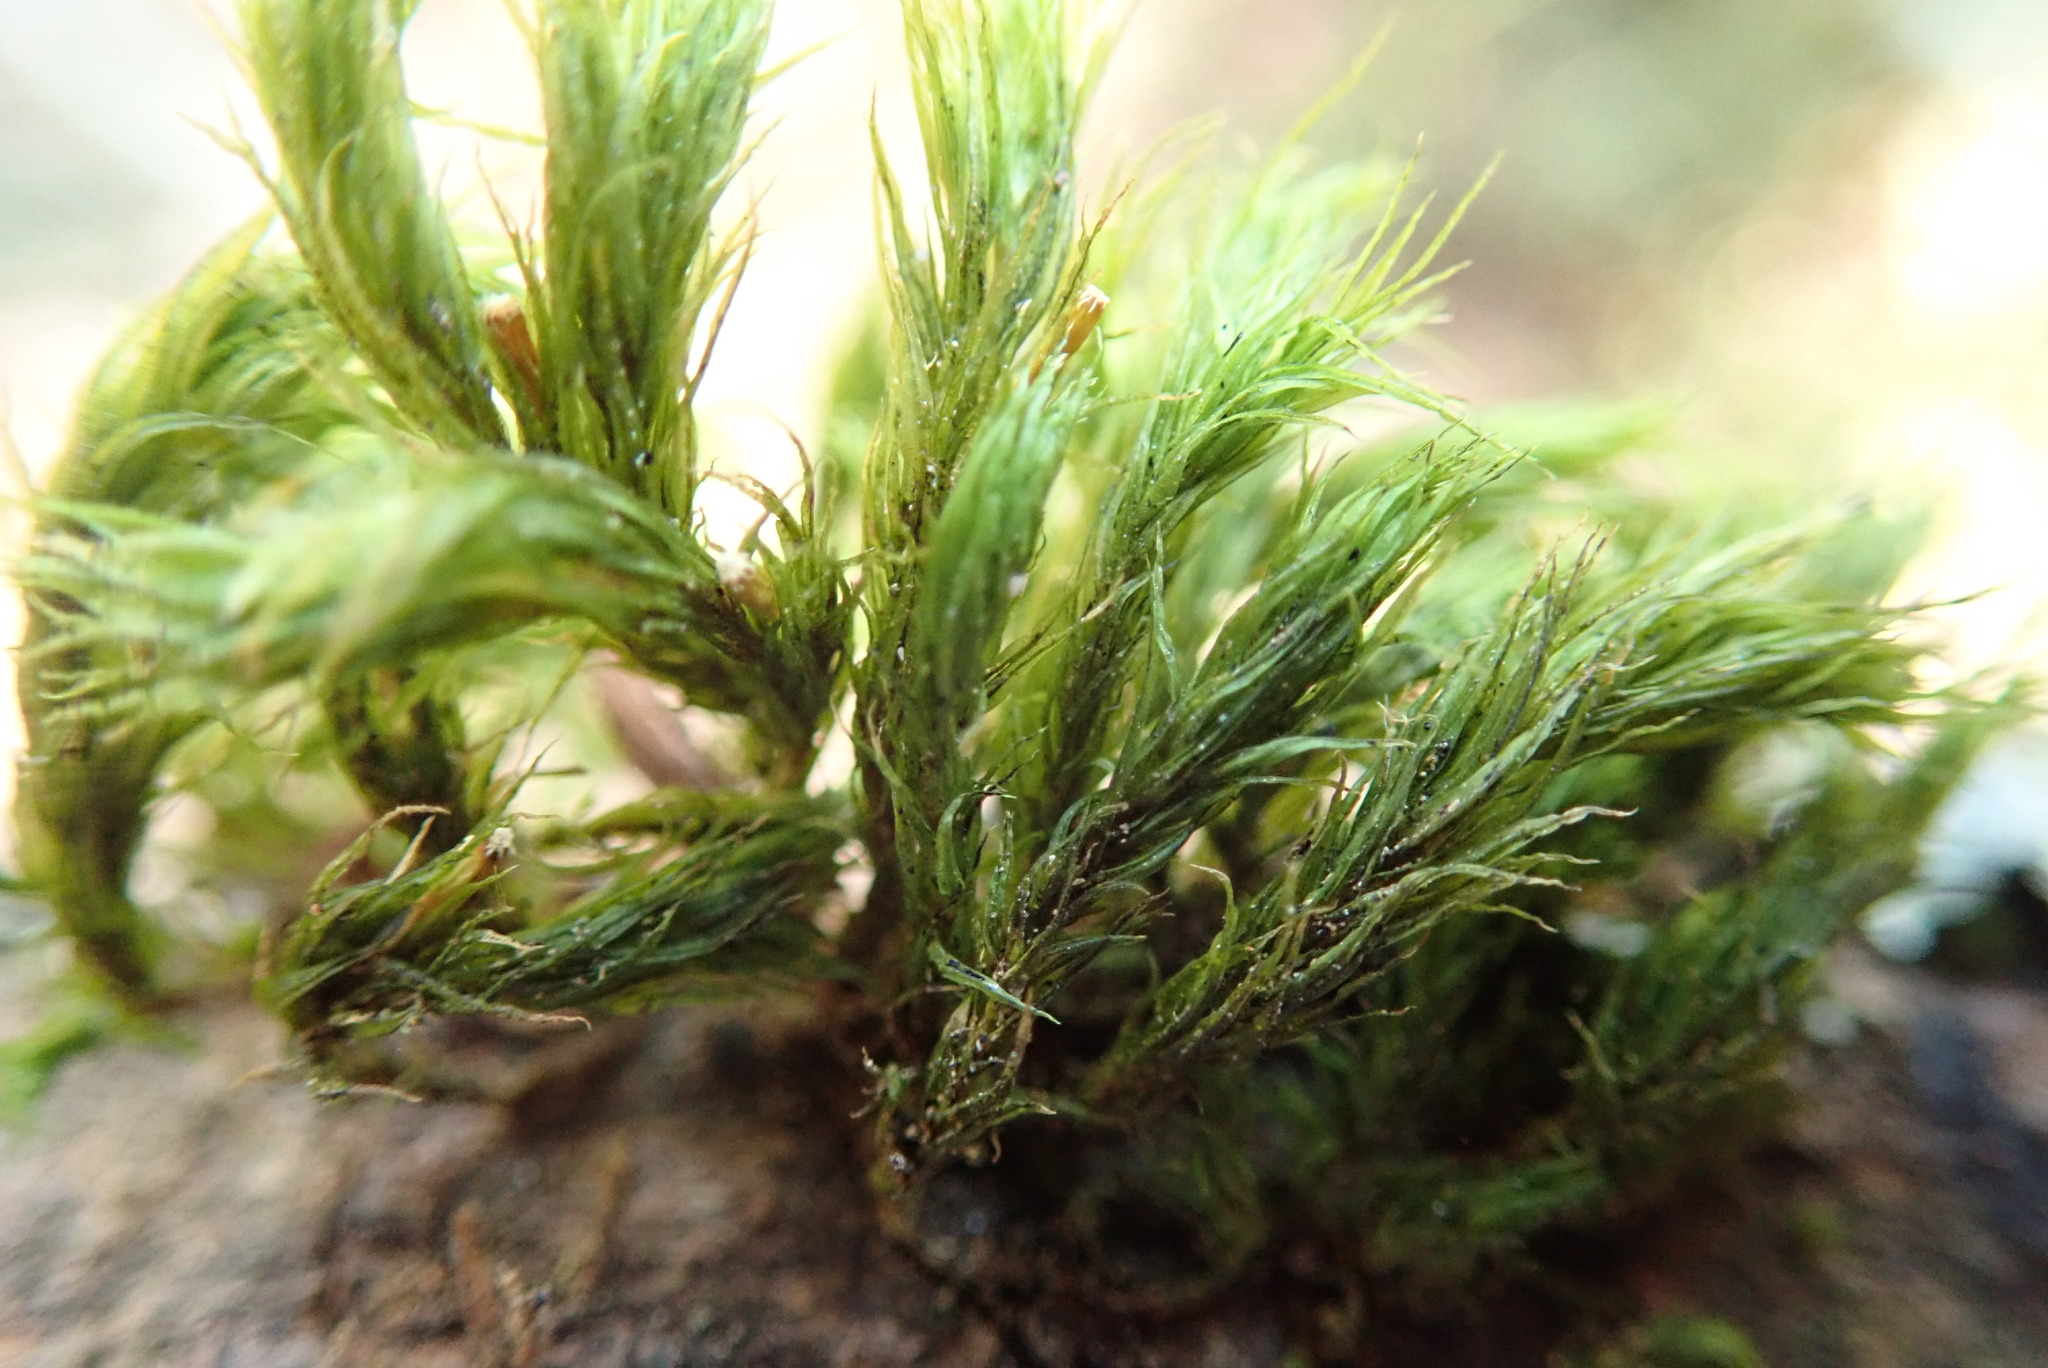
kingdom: Plantae
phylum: Bryophyta
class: Bryopsida
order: Orthotrichales
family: Orthotrichaceae
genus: Pulvigera
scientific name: Pulvigera papillosa
